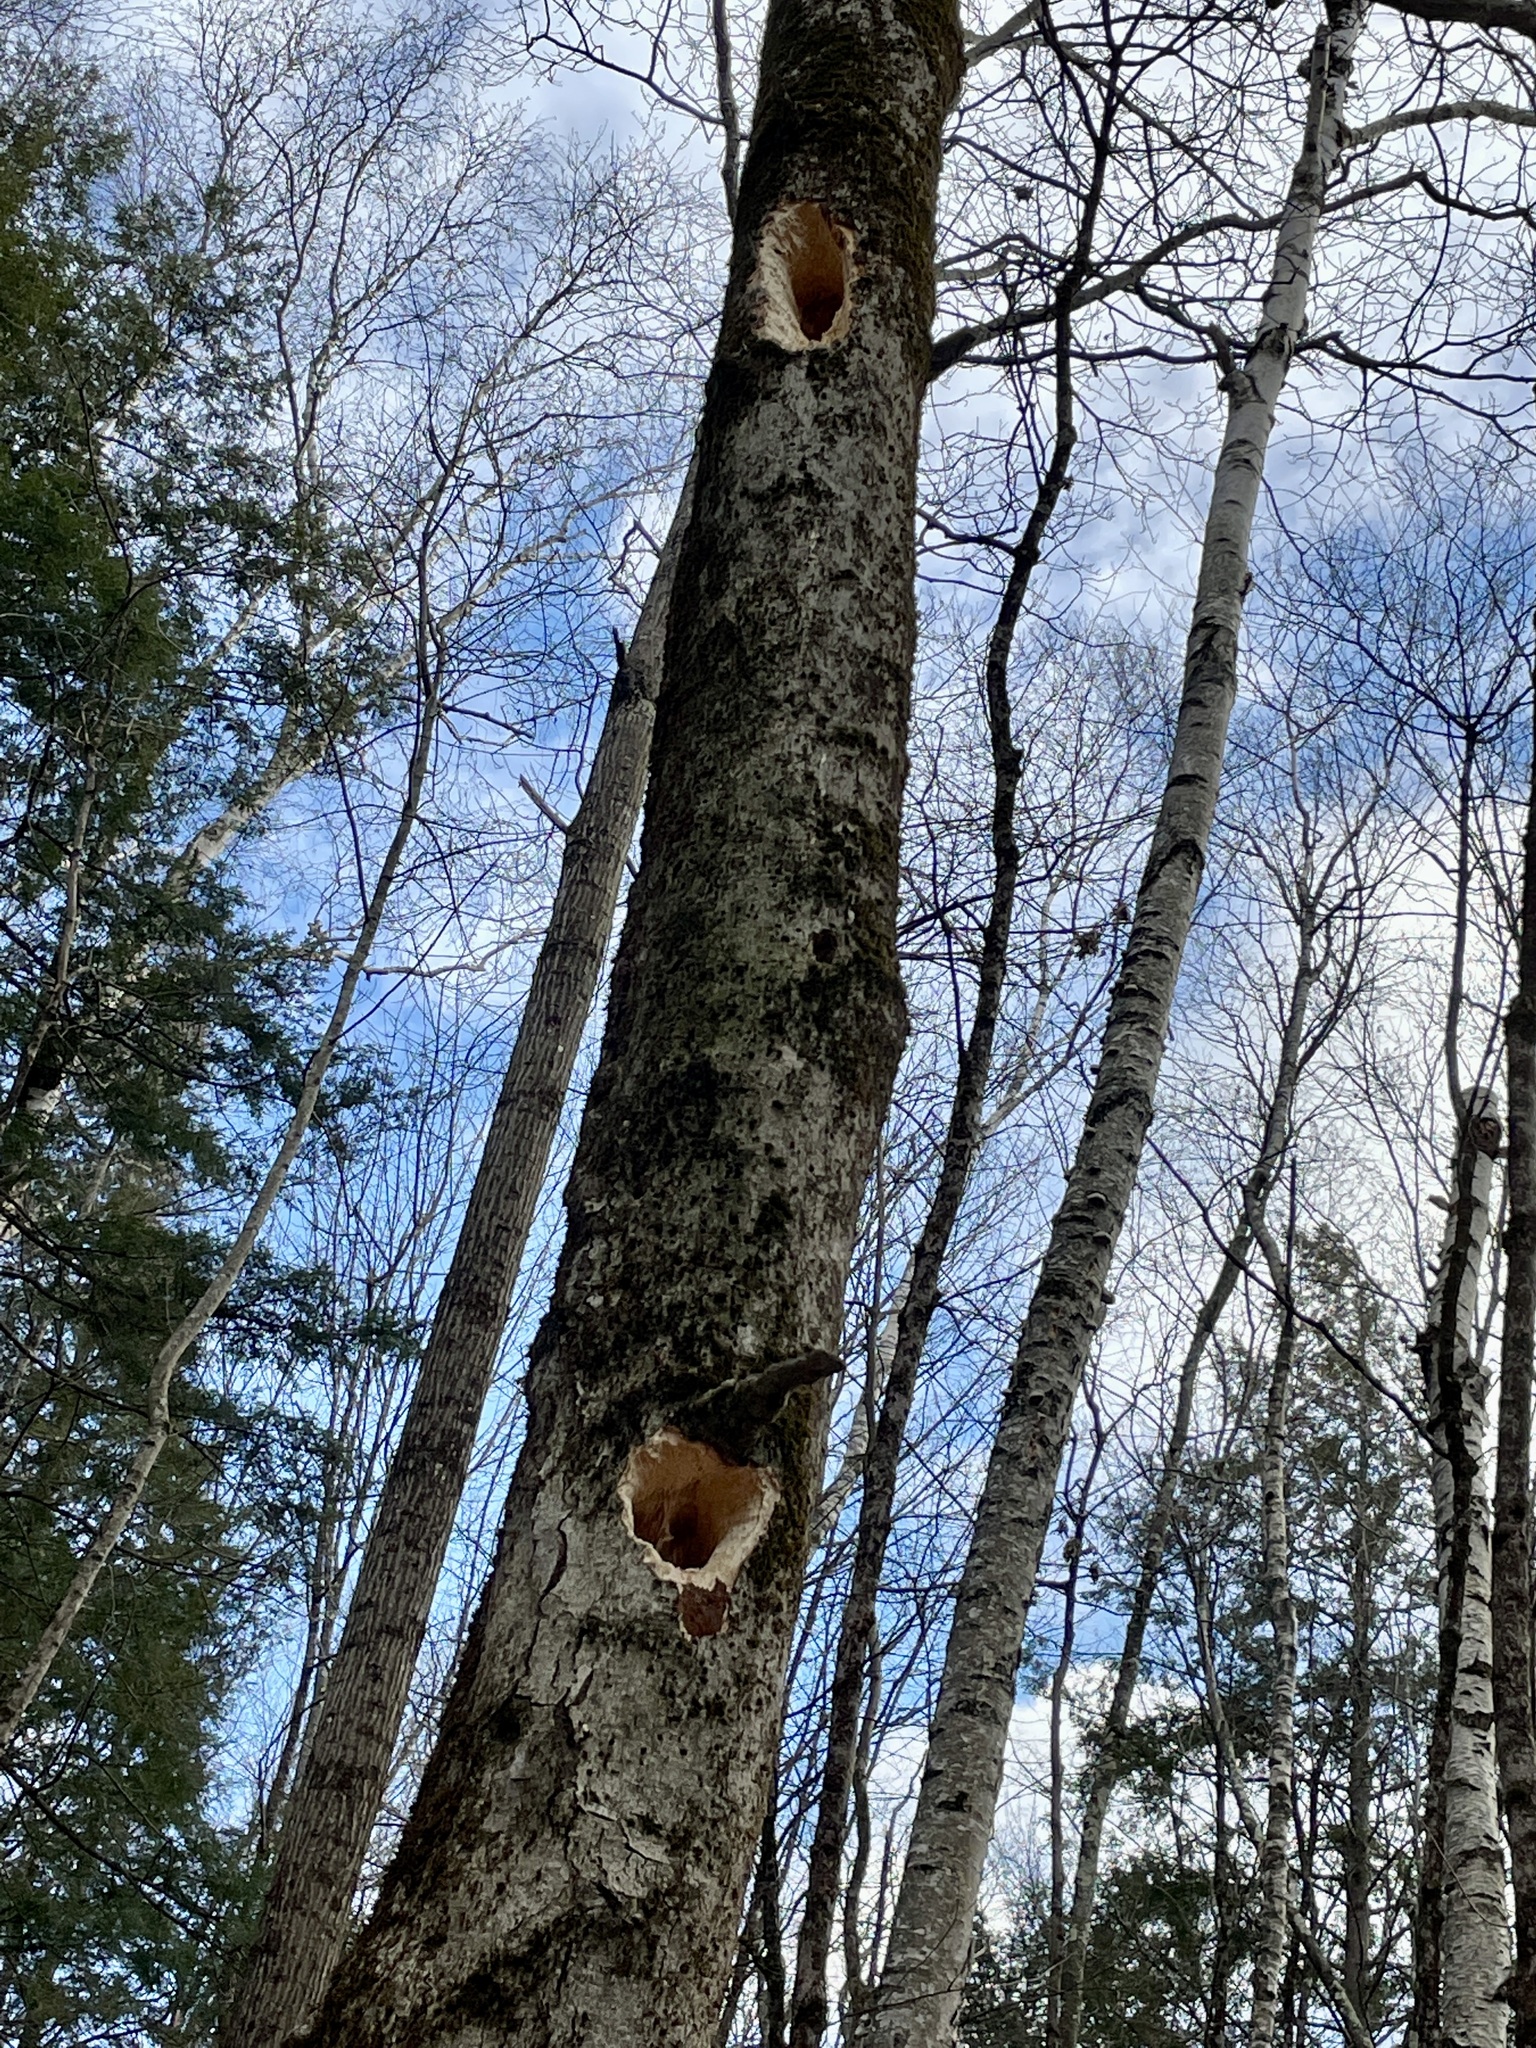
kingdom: Animalia
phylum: Chordata
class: Aves
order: Piciformes
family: Picidae
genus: Dryocopus
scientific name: Dryocopus pileatus
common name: Pileated woodpecker
